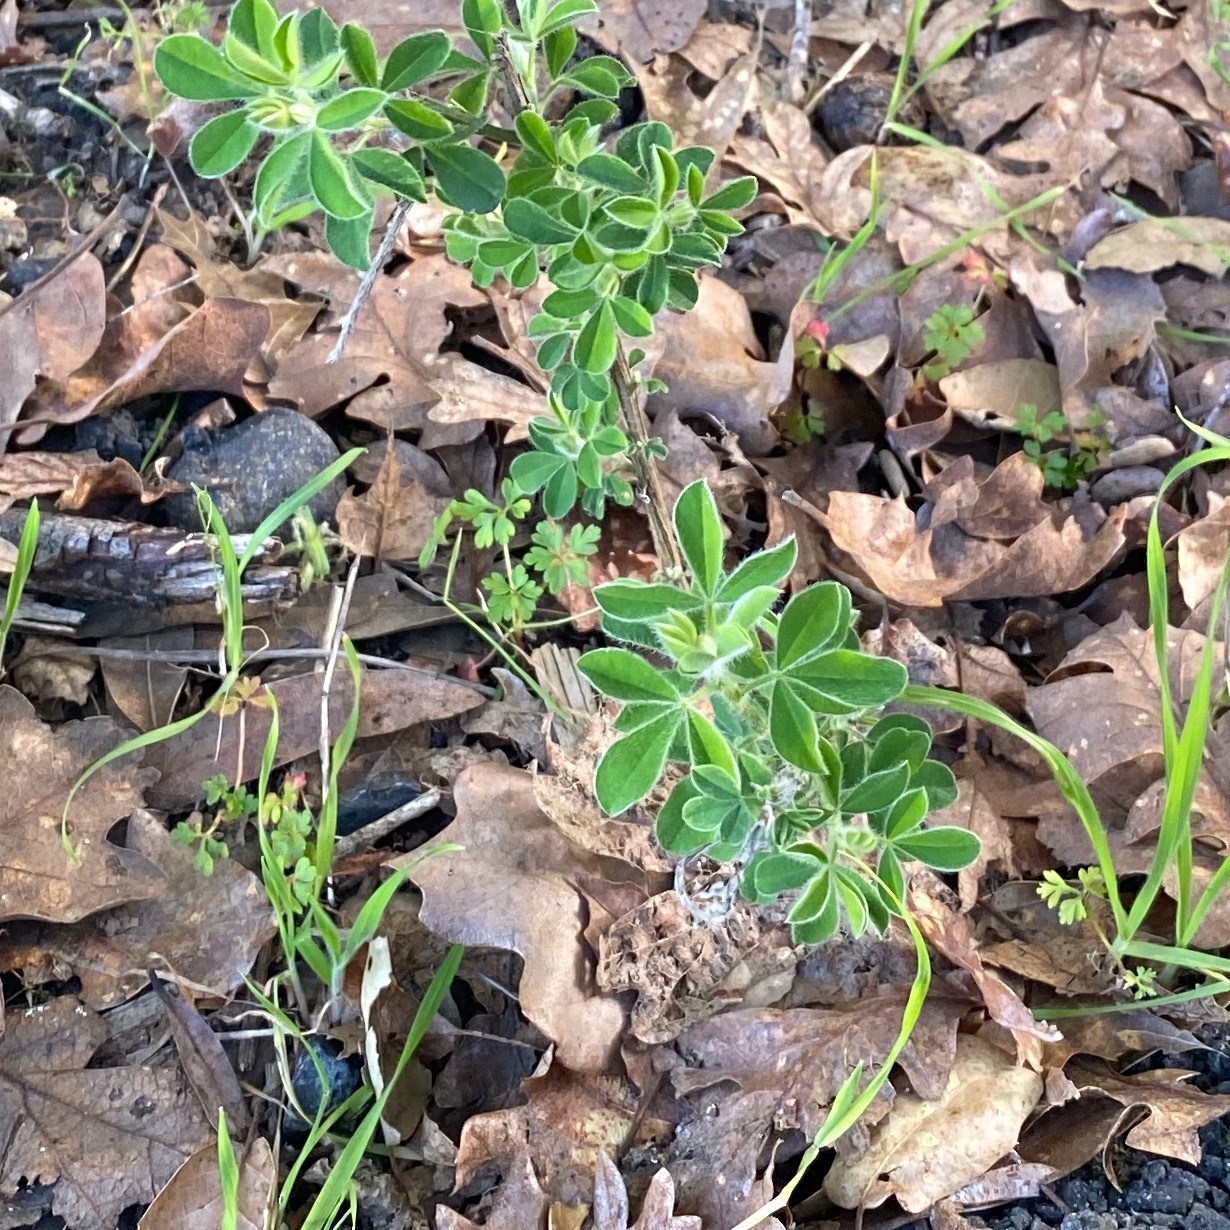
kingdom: Plantae
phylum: Tracheophyta
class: Magnoliopsida
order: Fabales
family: Fabaceae
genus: Genista
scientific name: Genista monspessulana
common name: Montpellier broom
